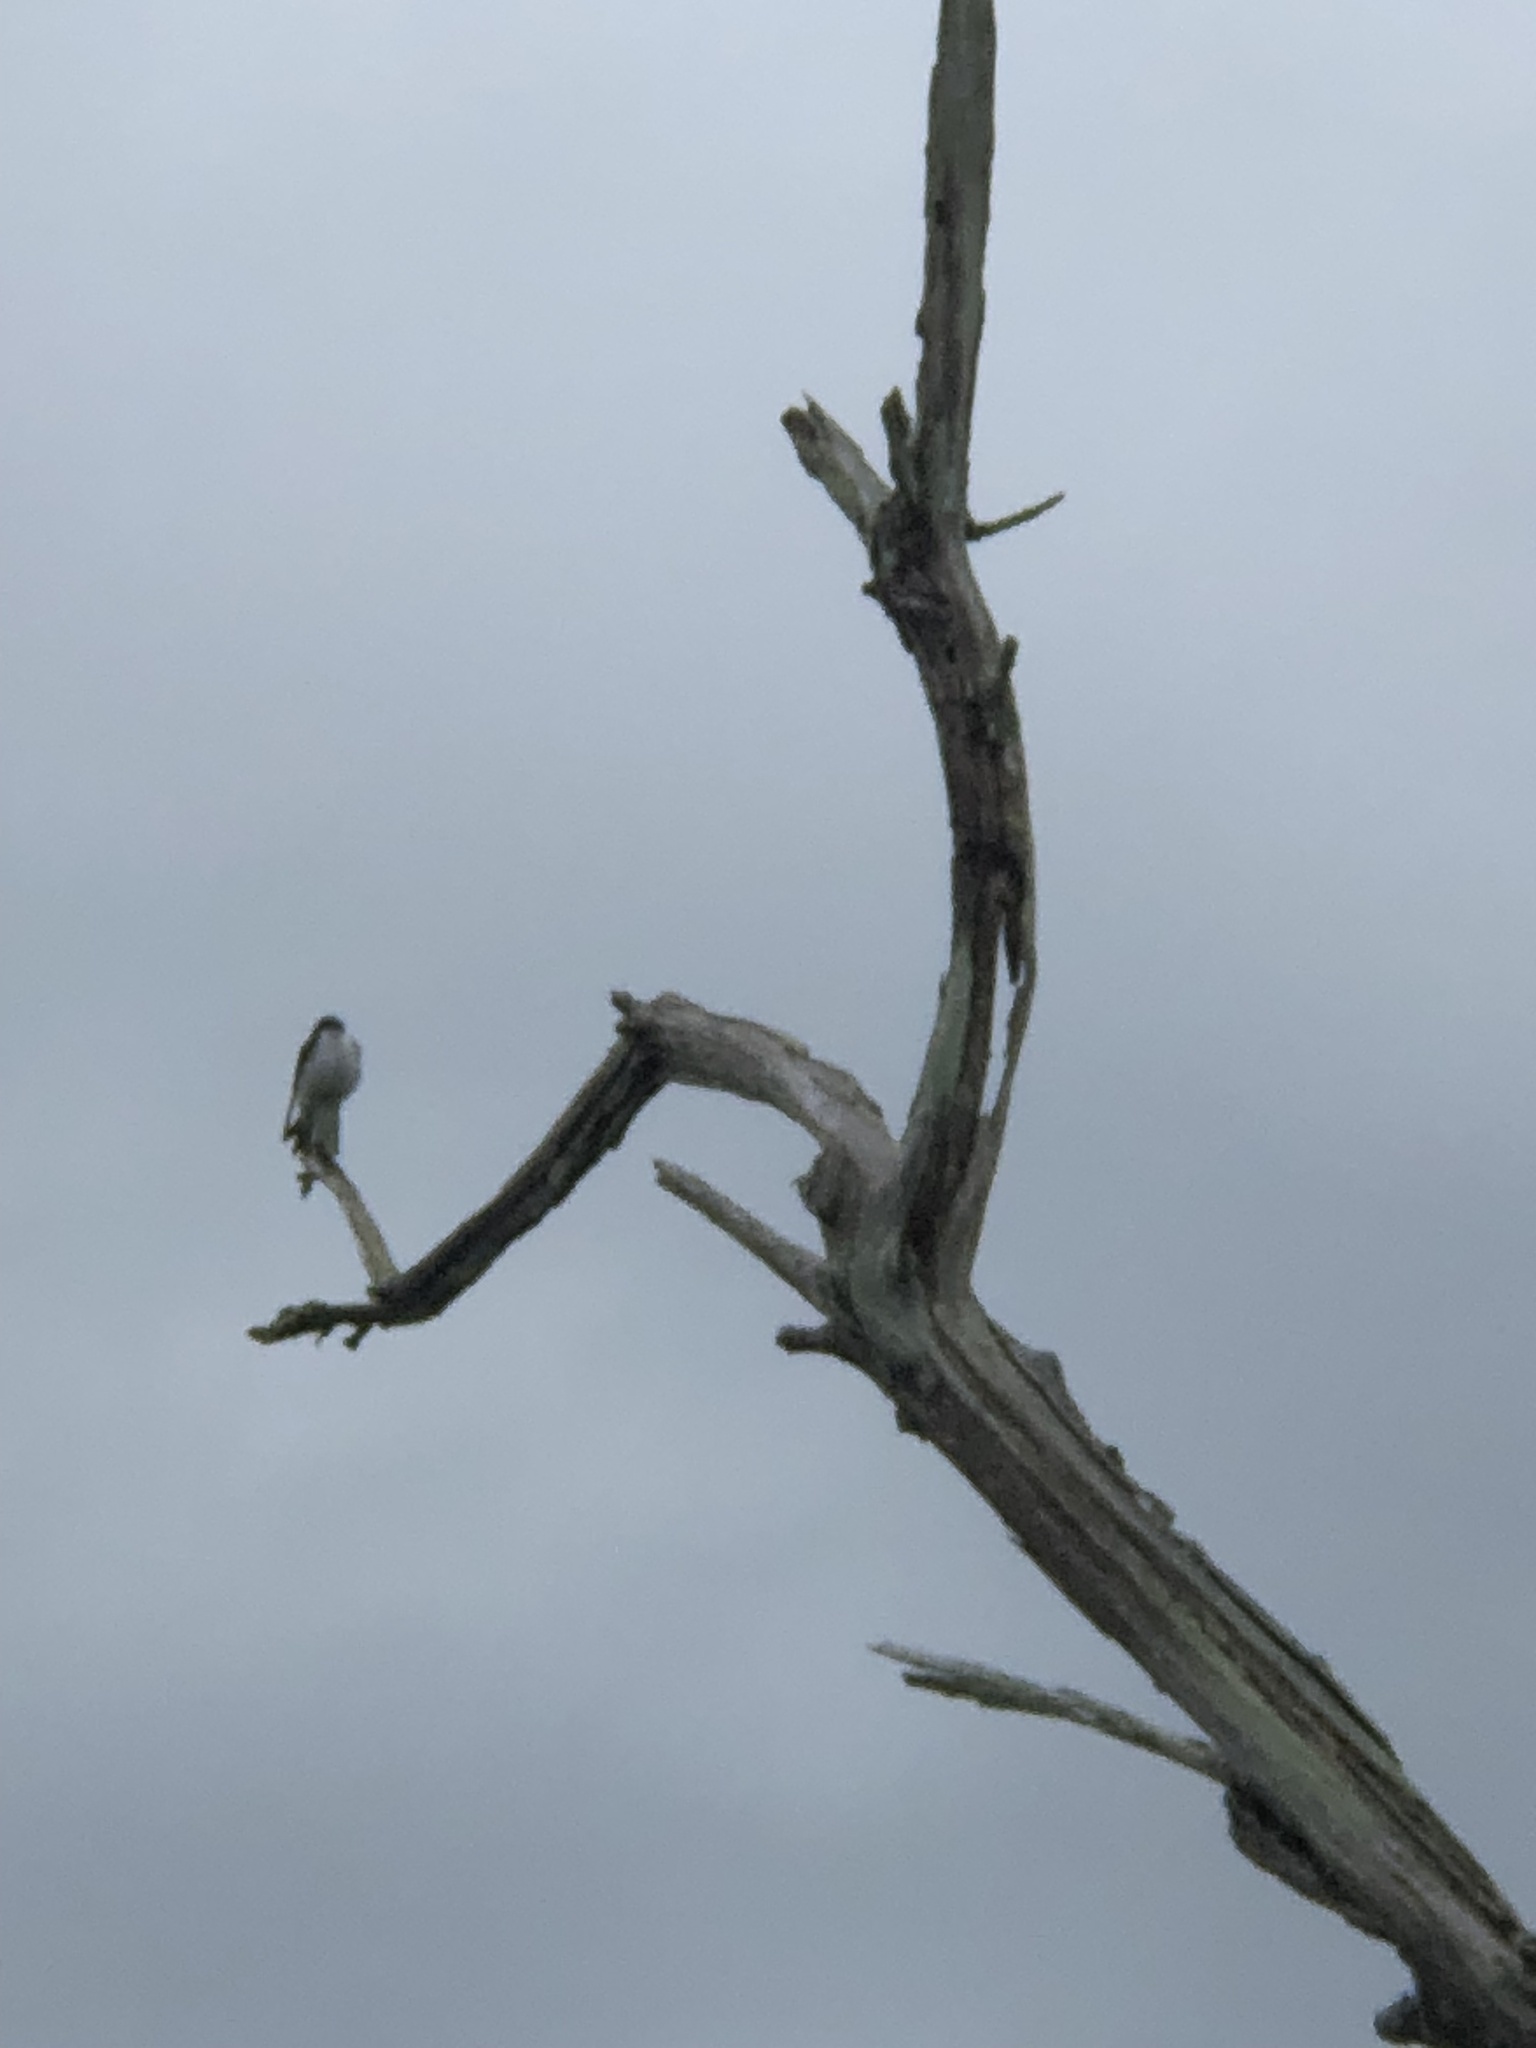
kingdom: Animalia
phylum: Chordata
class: Aves
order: Passeriformes
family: Hirundinidae
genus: Tachycineta
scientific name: Tachycineta bicolor
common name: Tree swallow
